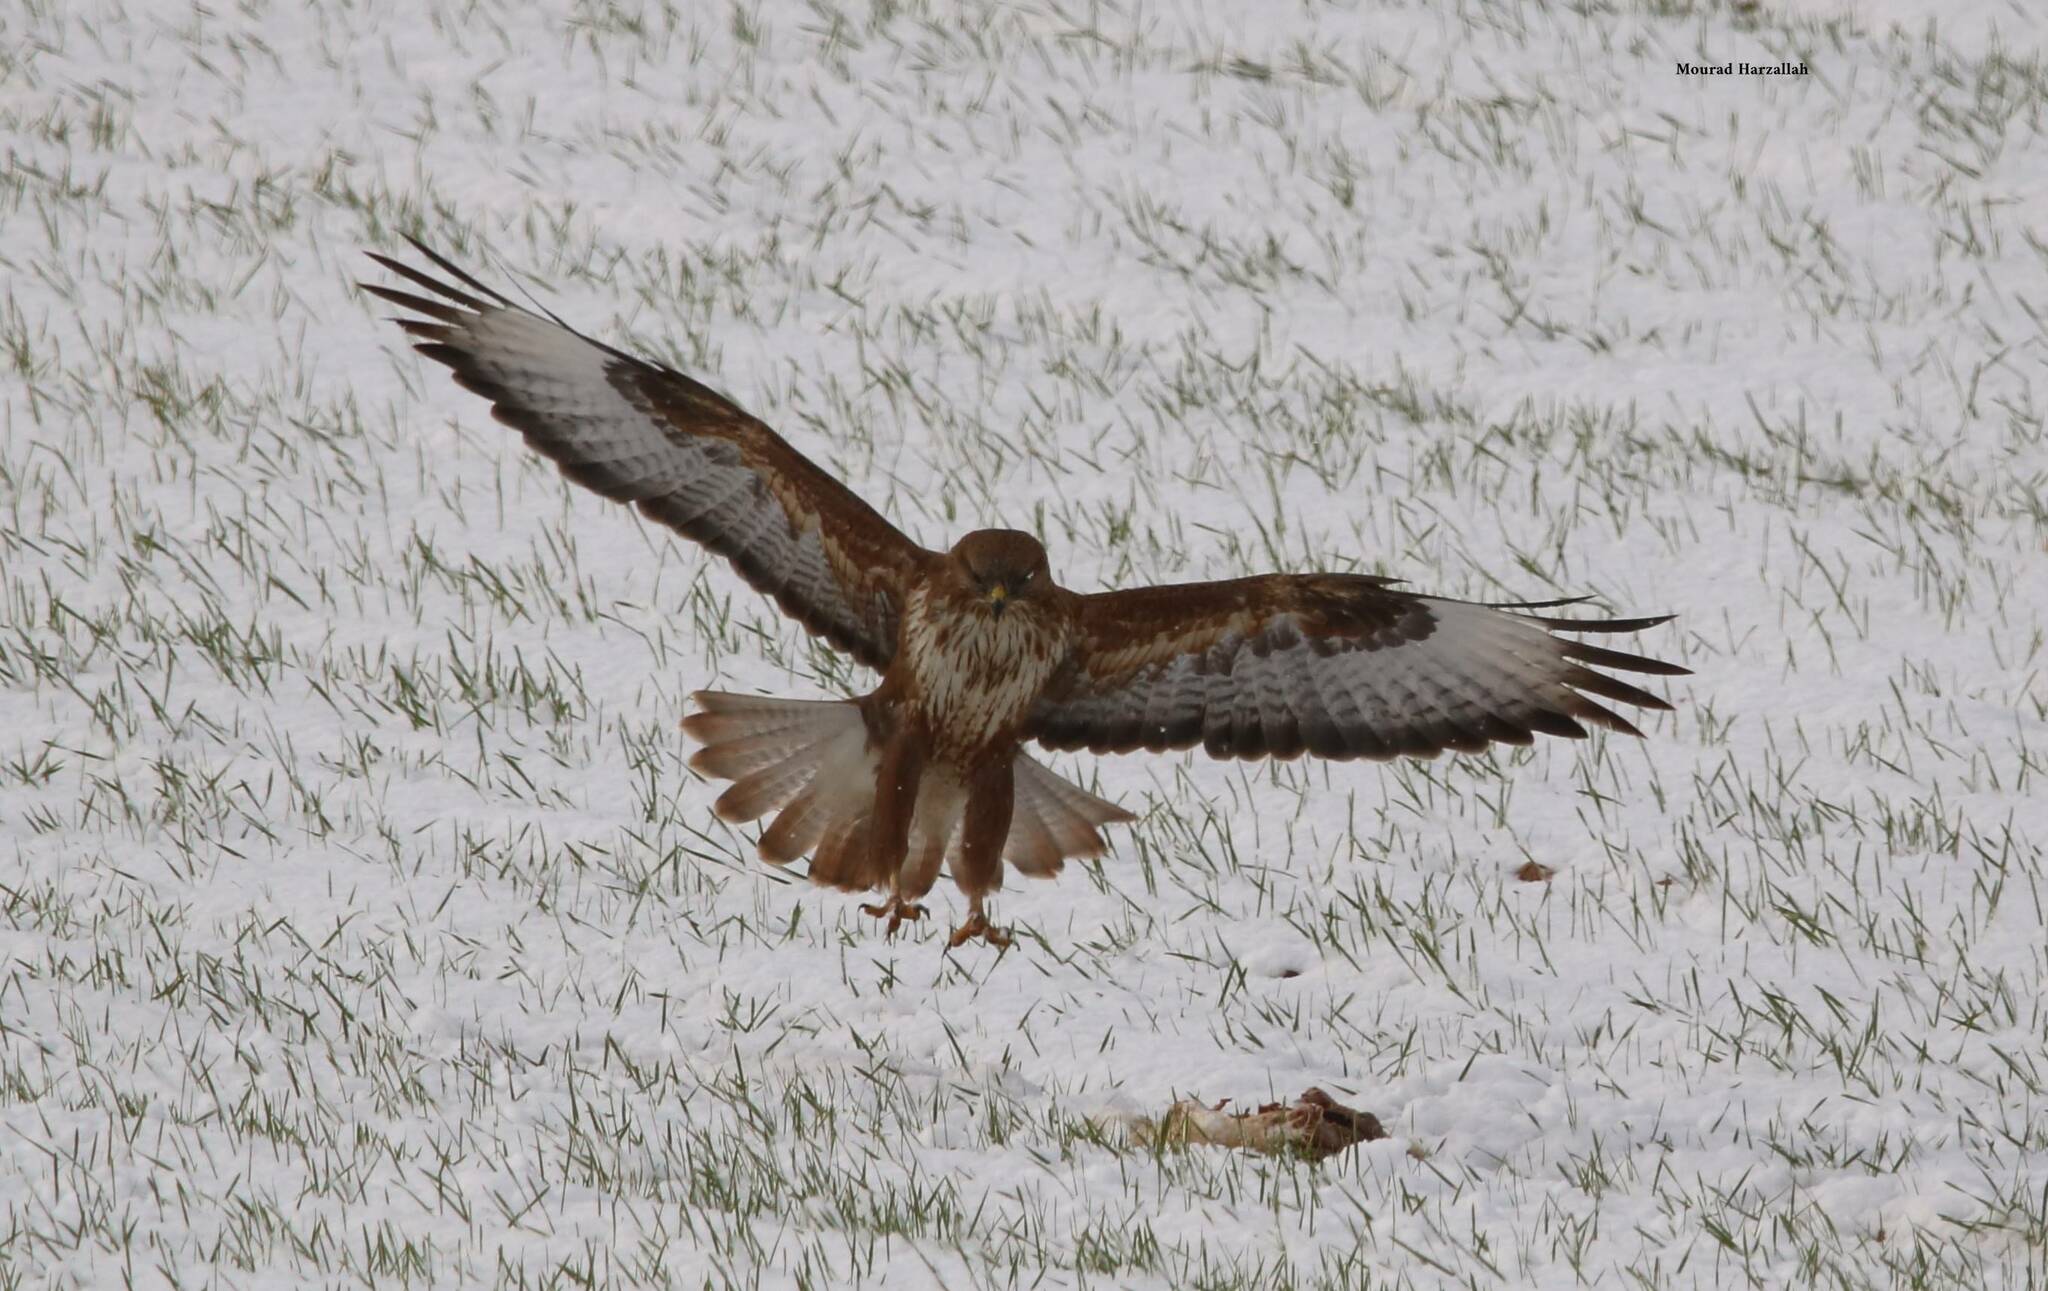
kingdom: Animalia
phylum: Chordata
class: Aves
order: Accipitriformes
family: Accipitridae
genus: Buteo
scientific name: Buteo rufinus
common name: Long-legged buzzard
